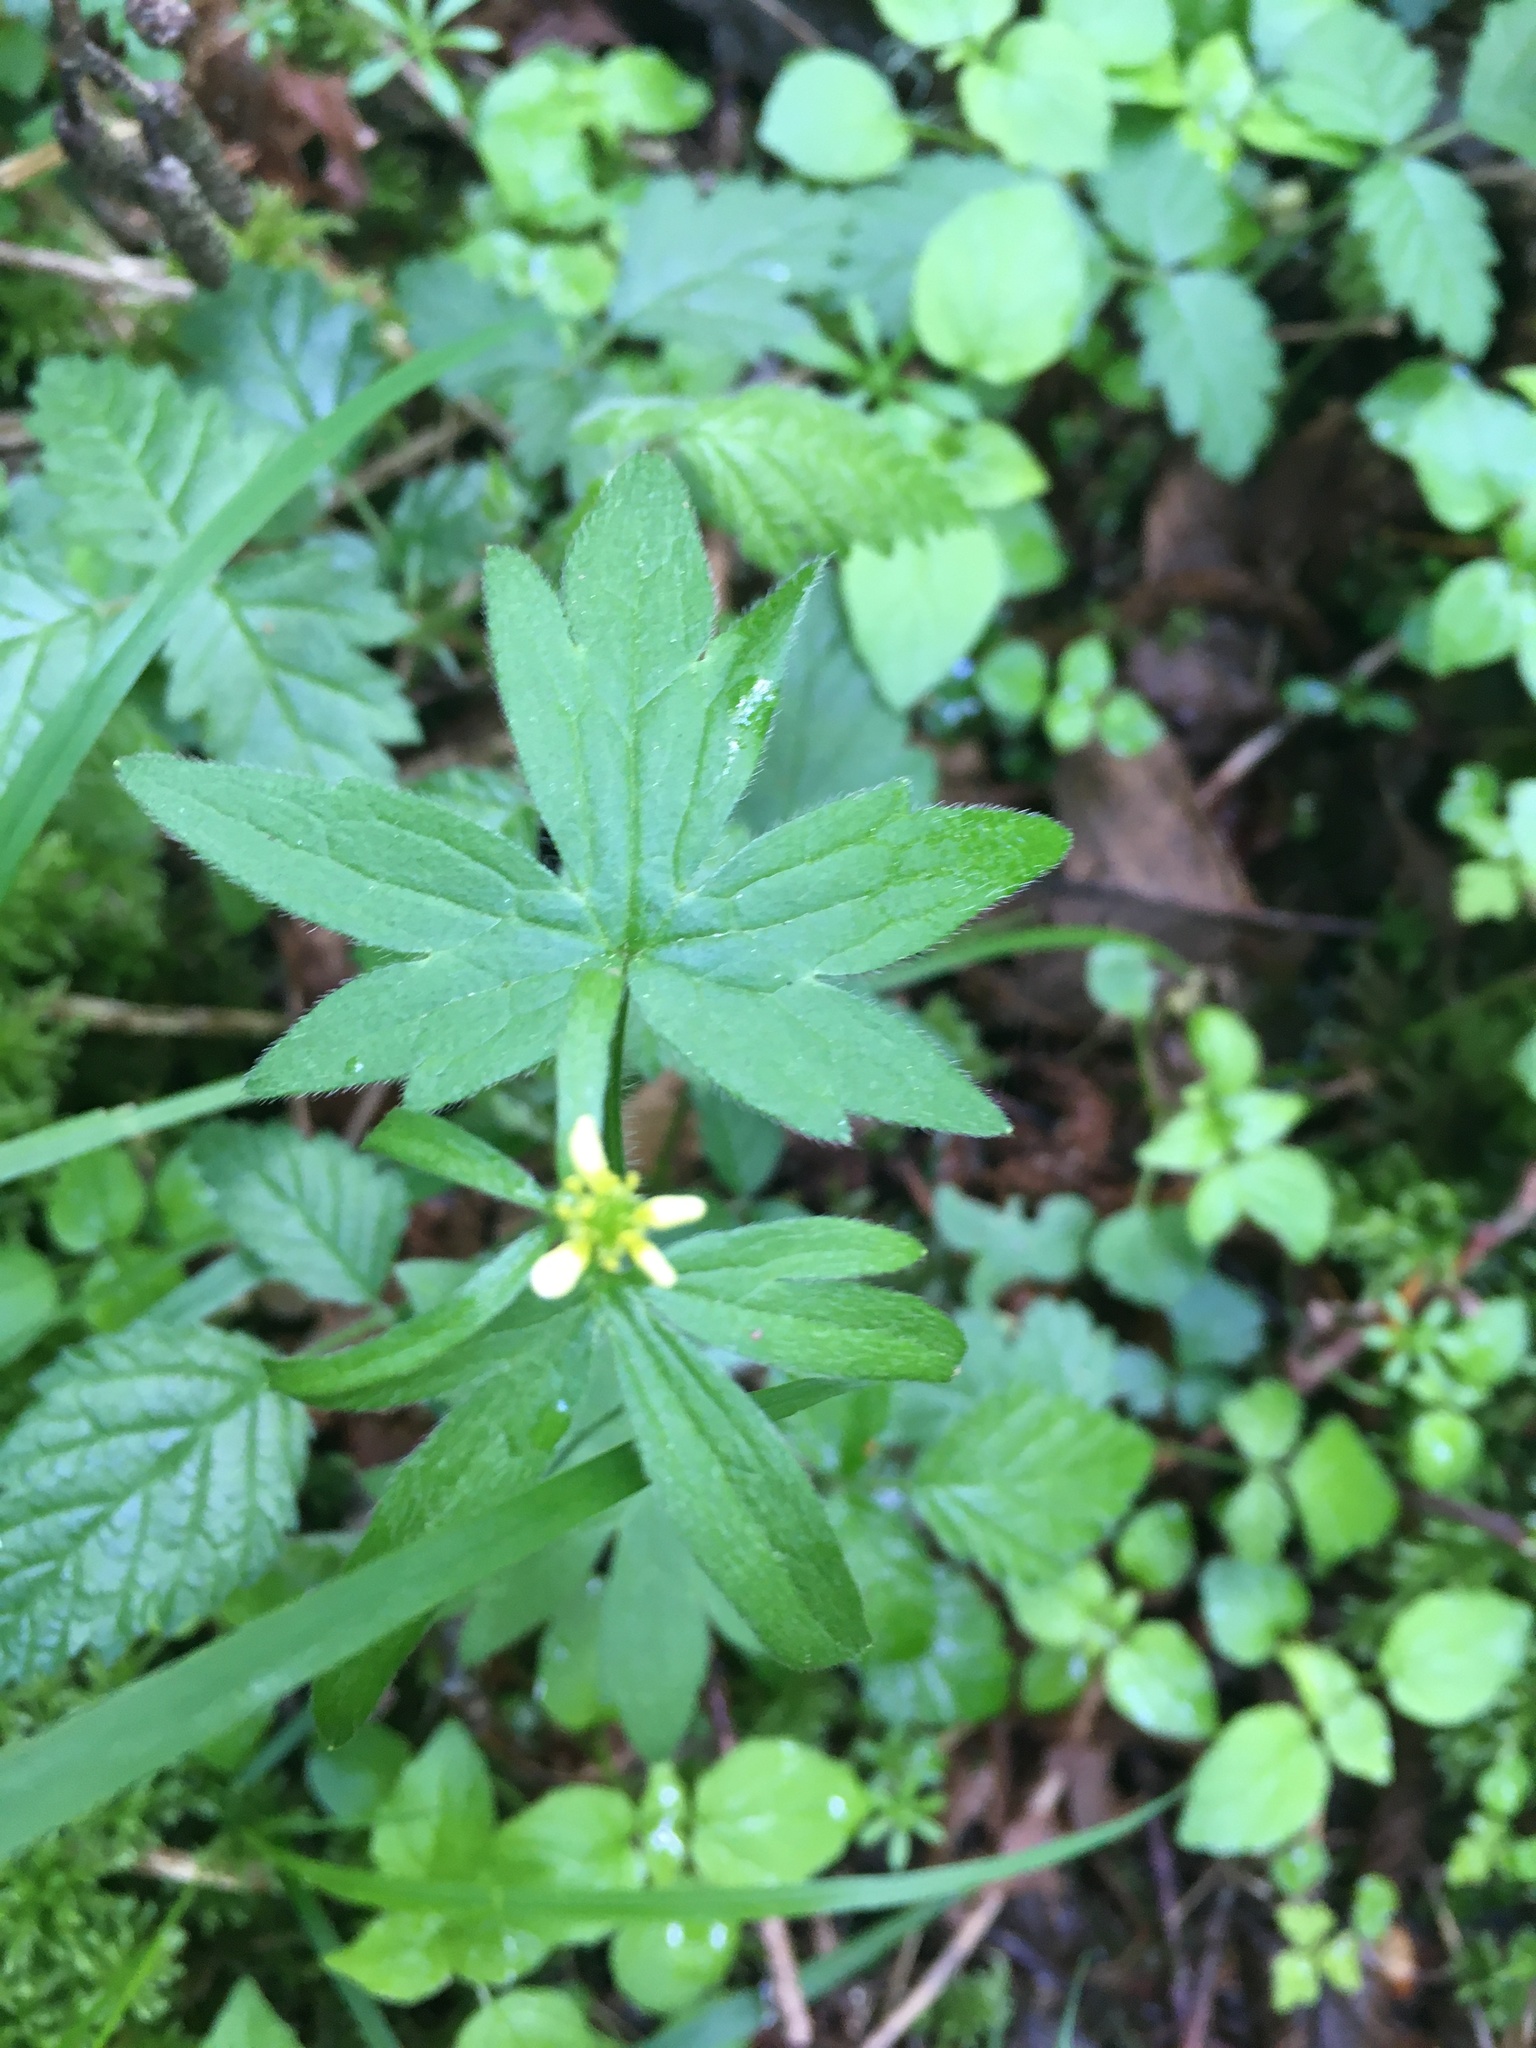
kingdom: Plantae
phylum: Tracheophyta
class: Magnoliopsida
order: Ranunculales
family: Ranunculaceae
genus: Ranunculus
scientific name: Ranunculus uncinatus
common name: Little buttercup
